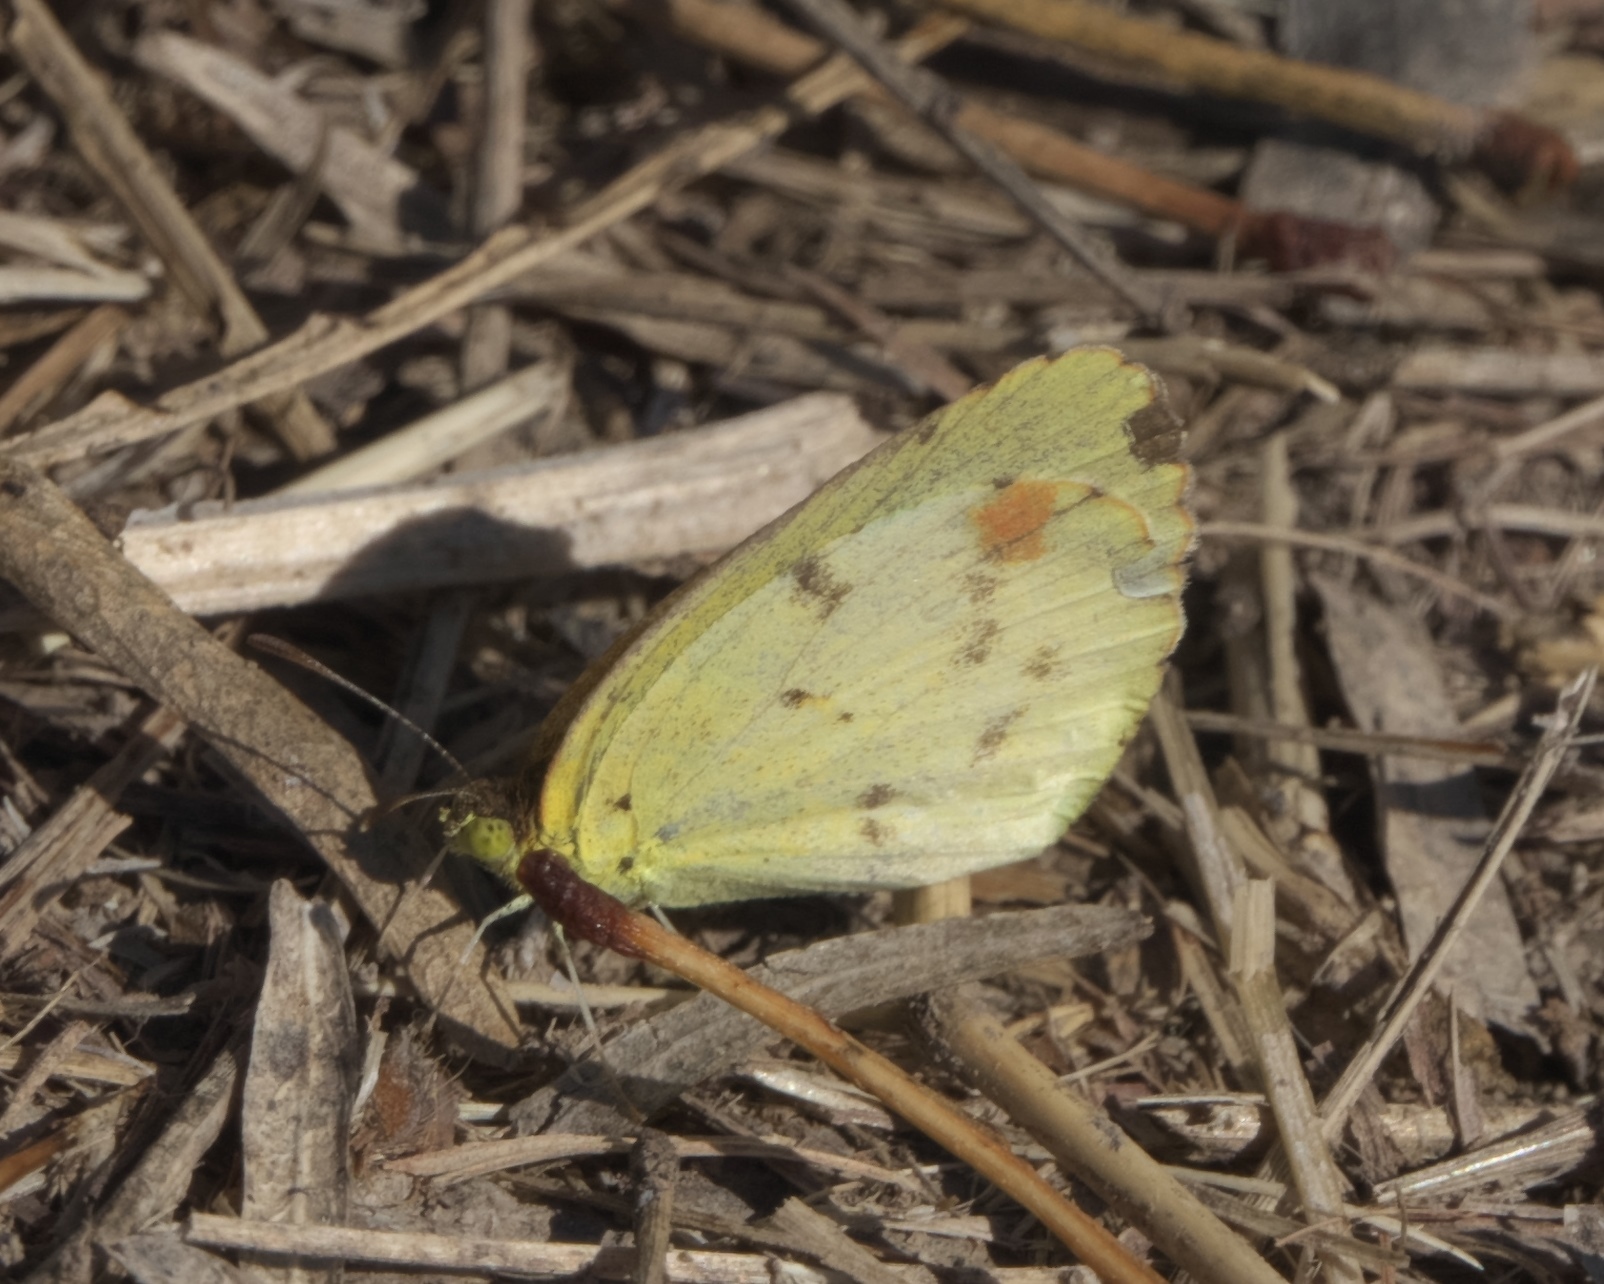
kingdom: Animalia
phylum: Arthropoda
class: Insecta
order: Lepidoptera
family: Pieridae
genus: Pyrisitia
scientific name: Pyrisitia lisa
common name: Little yellow
